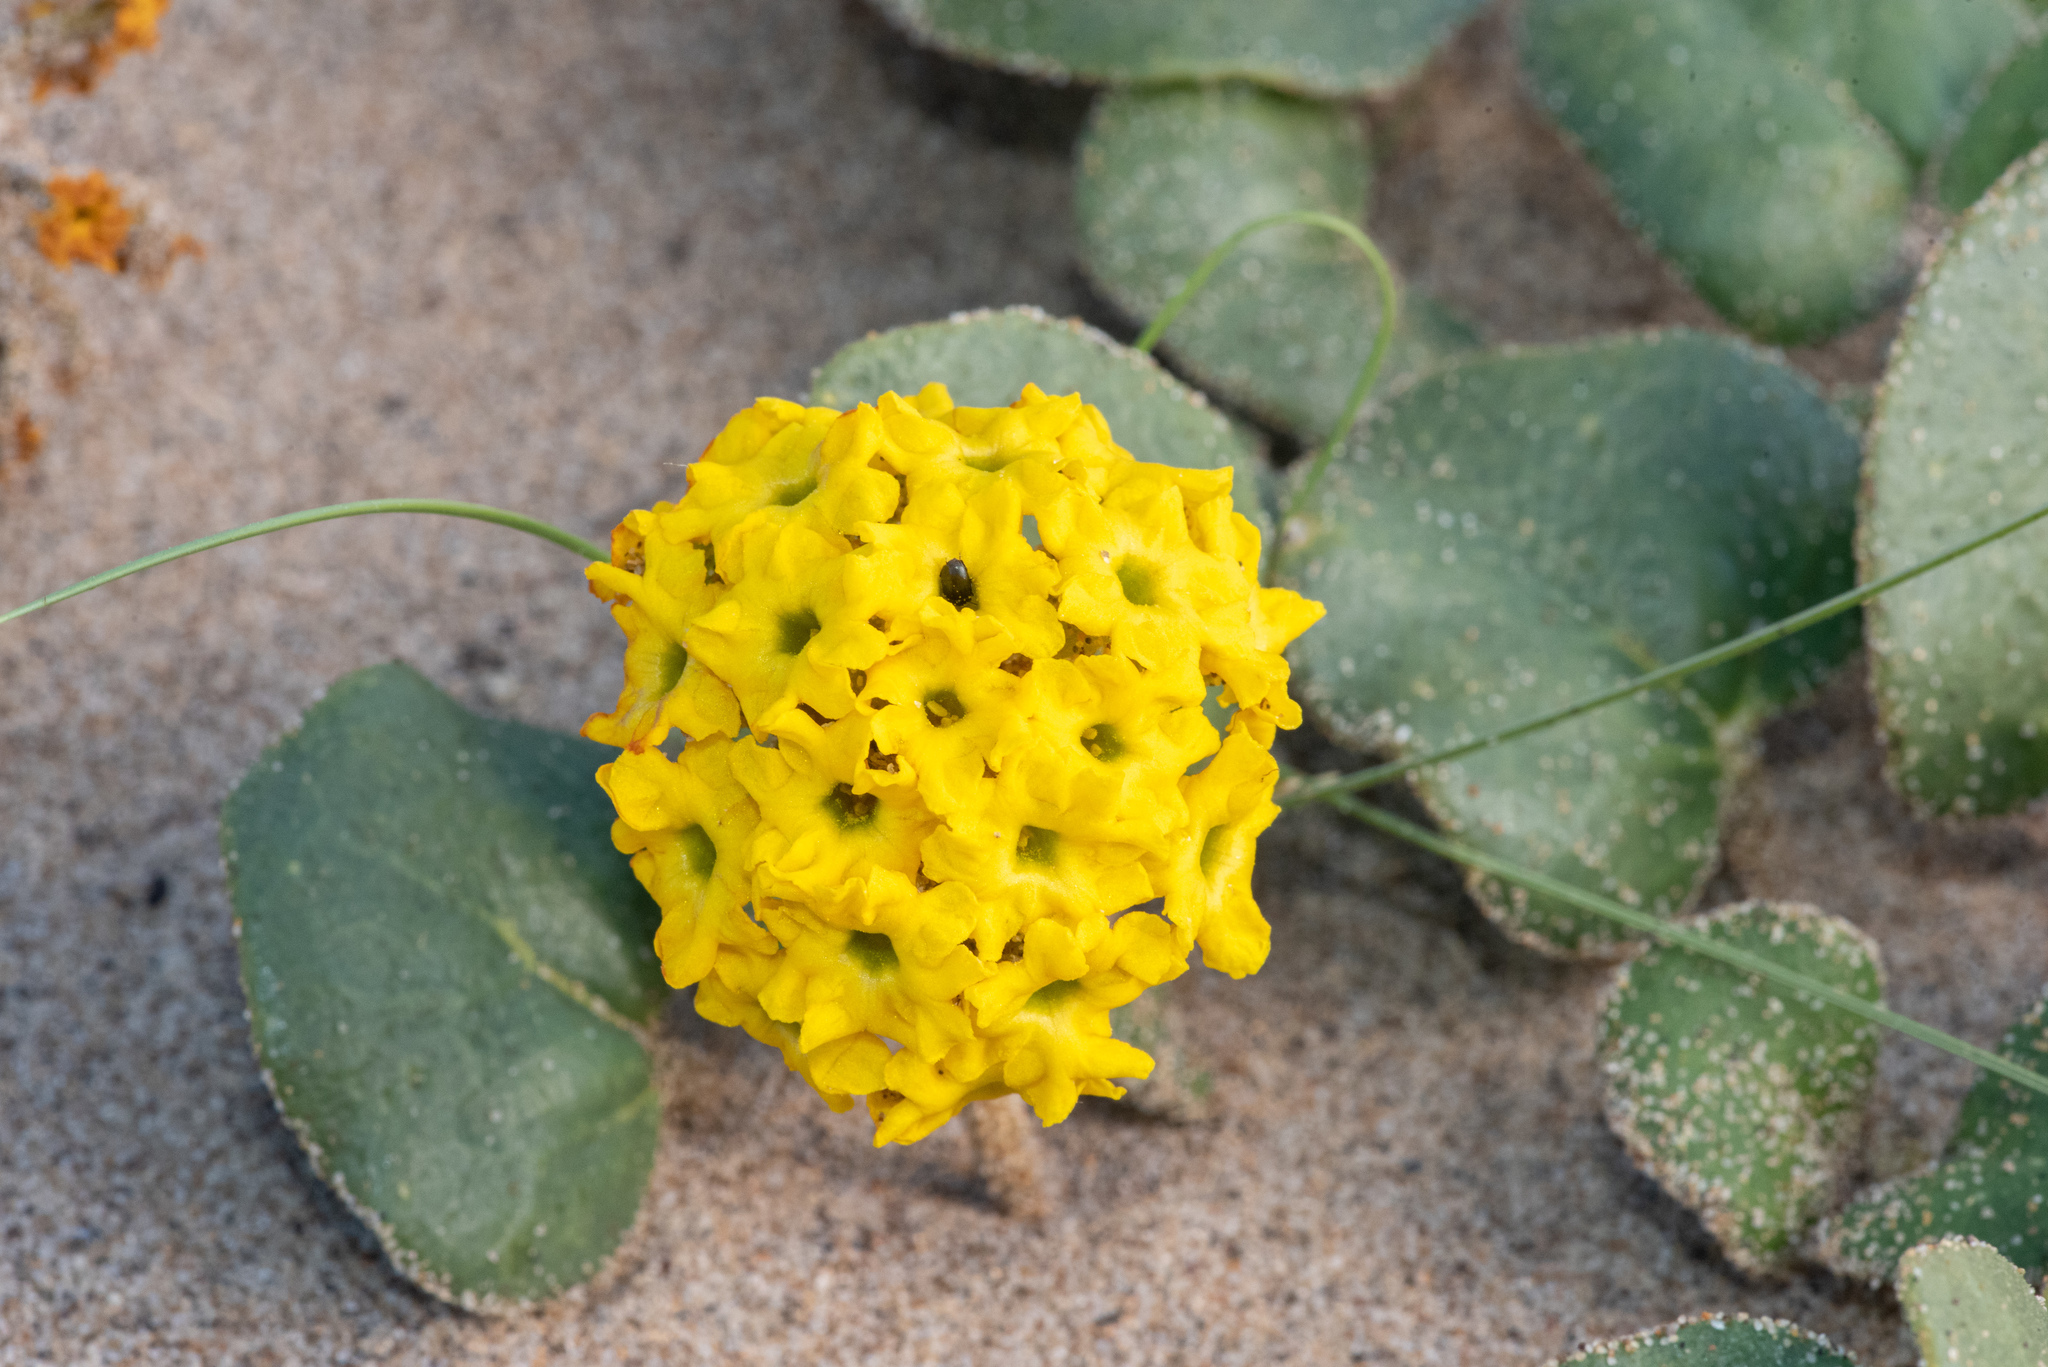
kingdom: Plantae
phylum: Tracheophyta
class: Magnoliopsida
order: Caryophyllales
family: Nyctaginaceae
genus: Abronia
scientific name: Abronia latifolia
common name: Yellow sand-verbena
